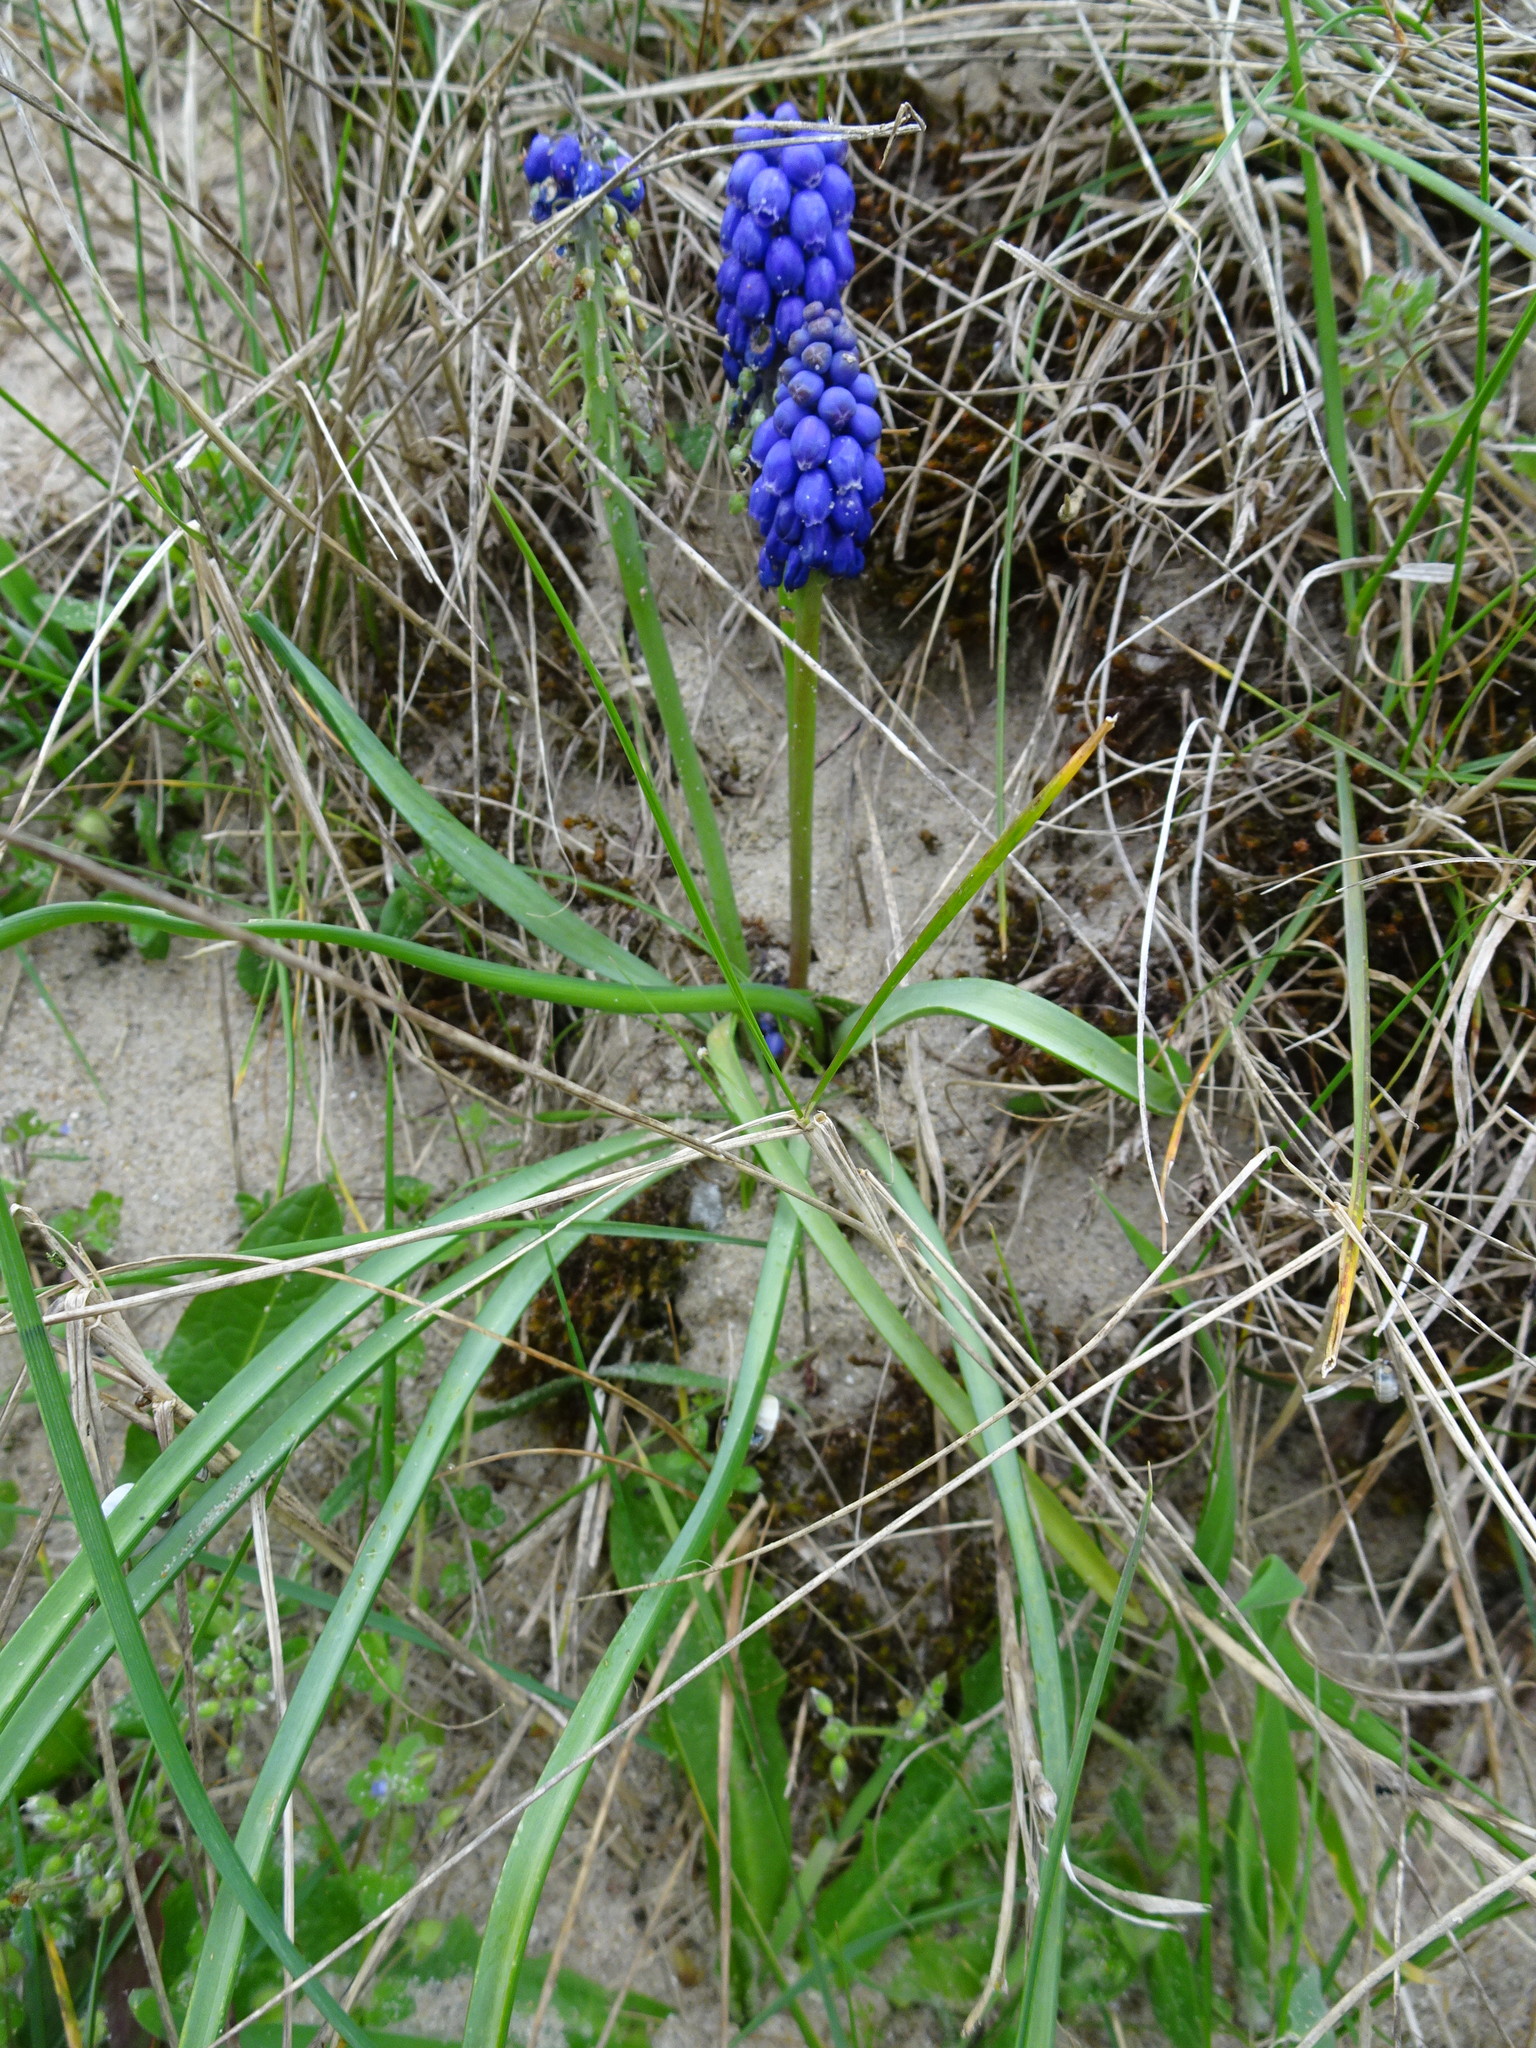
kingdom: Plantae
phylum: Tracheophyta
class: Liliopsida
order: Asparagales
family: Asparagaceae
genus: Muscari
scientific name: Muscari armeniacum
